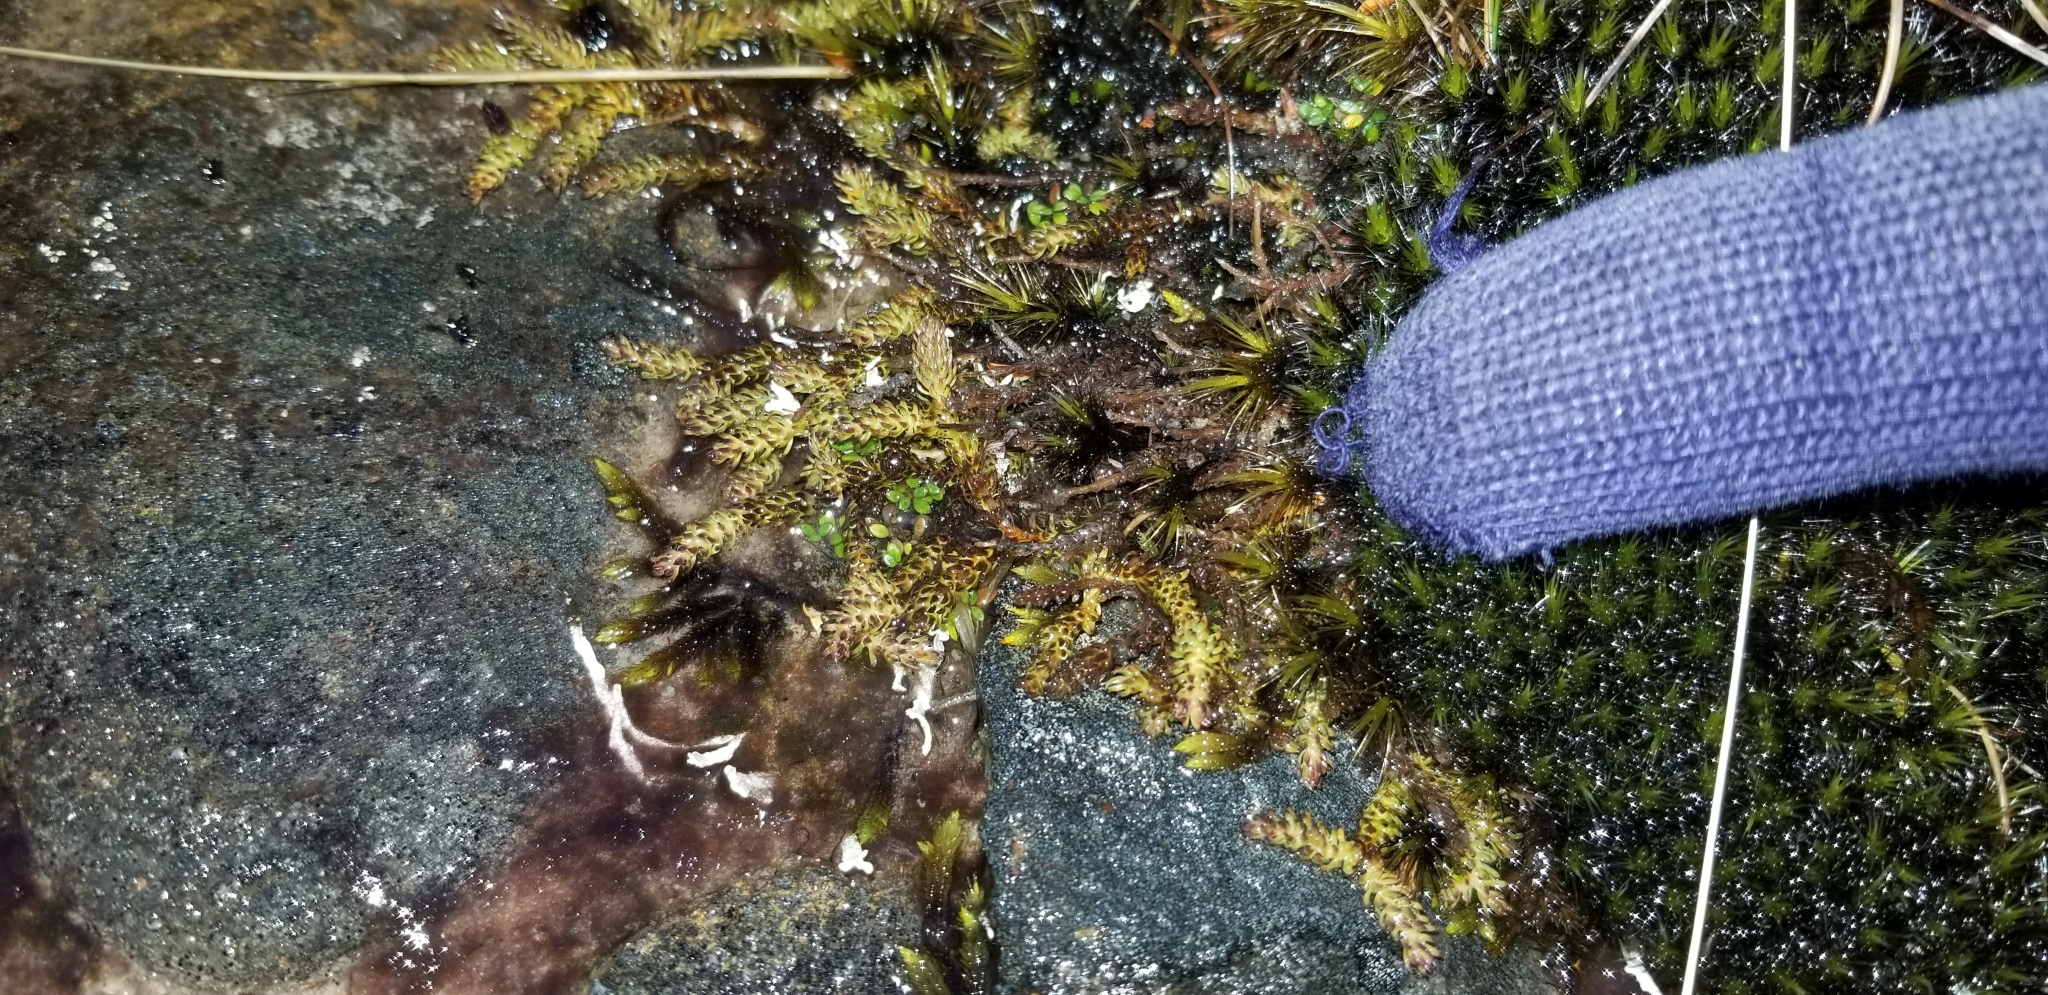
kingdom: Plantae
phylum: Tracheophyta
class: Lycopodiopsida
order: Lycopodiales
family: Lycopodiaceae
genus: Lateristachys
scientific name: Lateristachys diffusa
